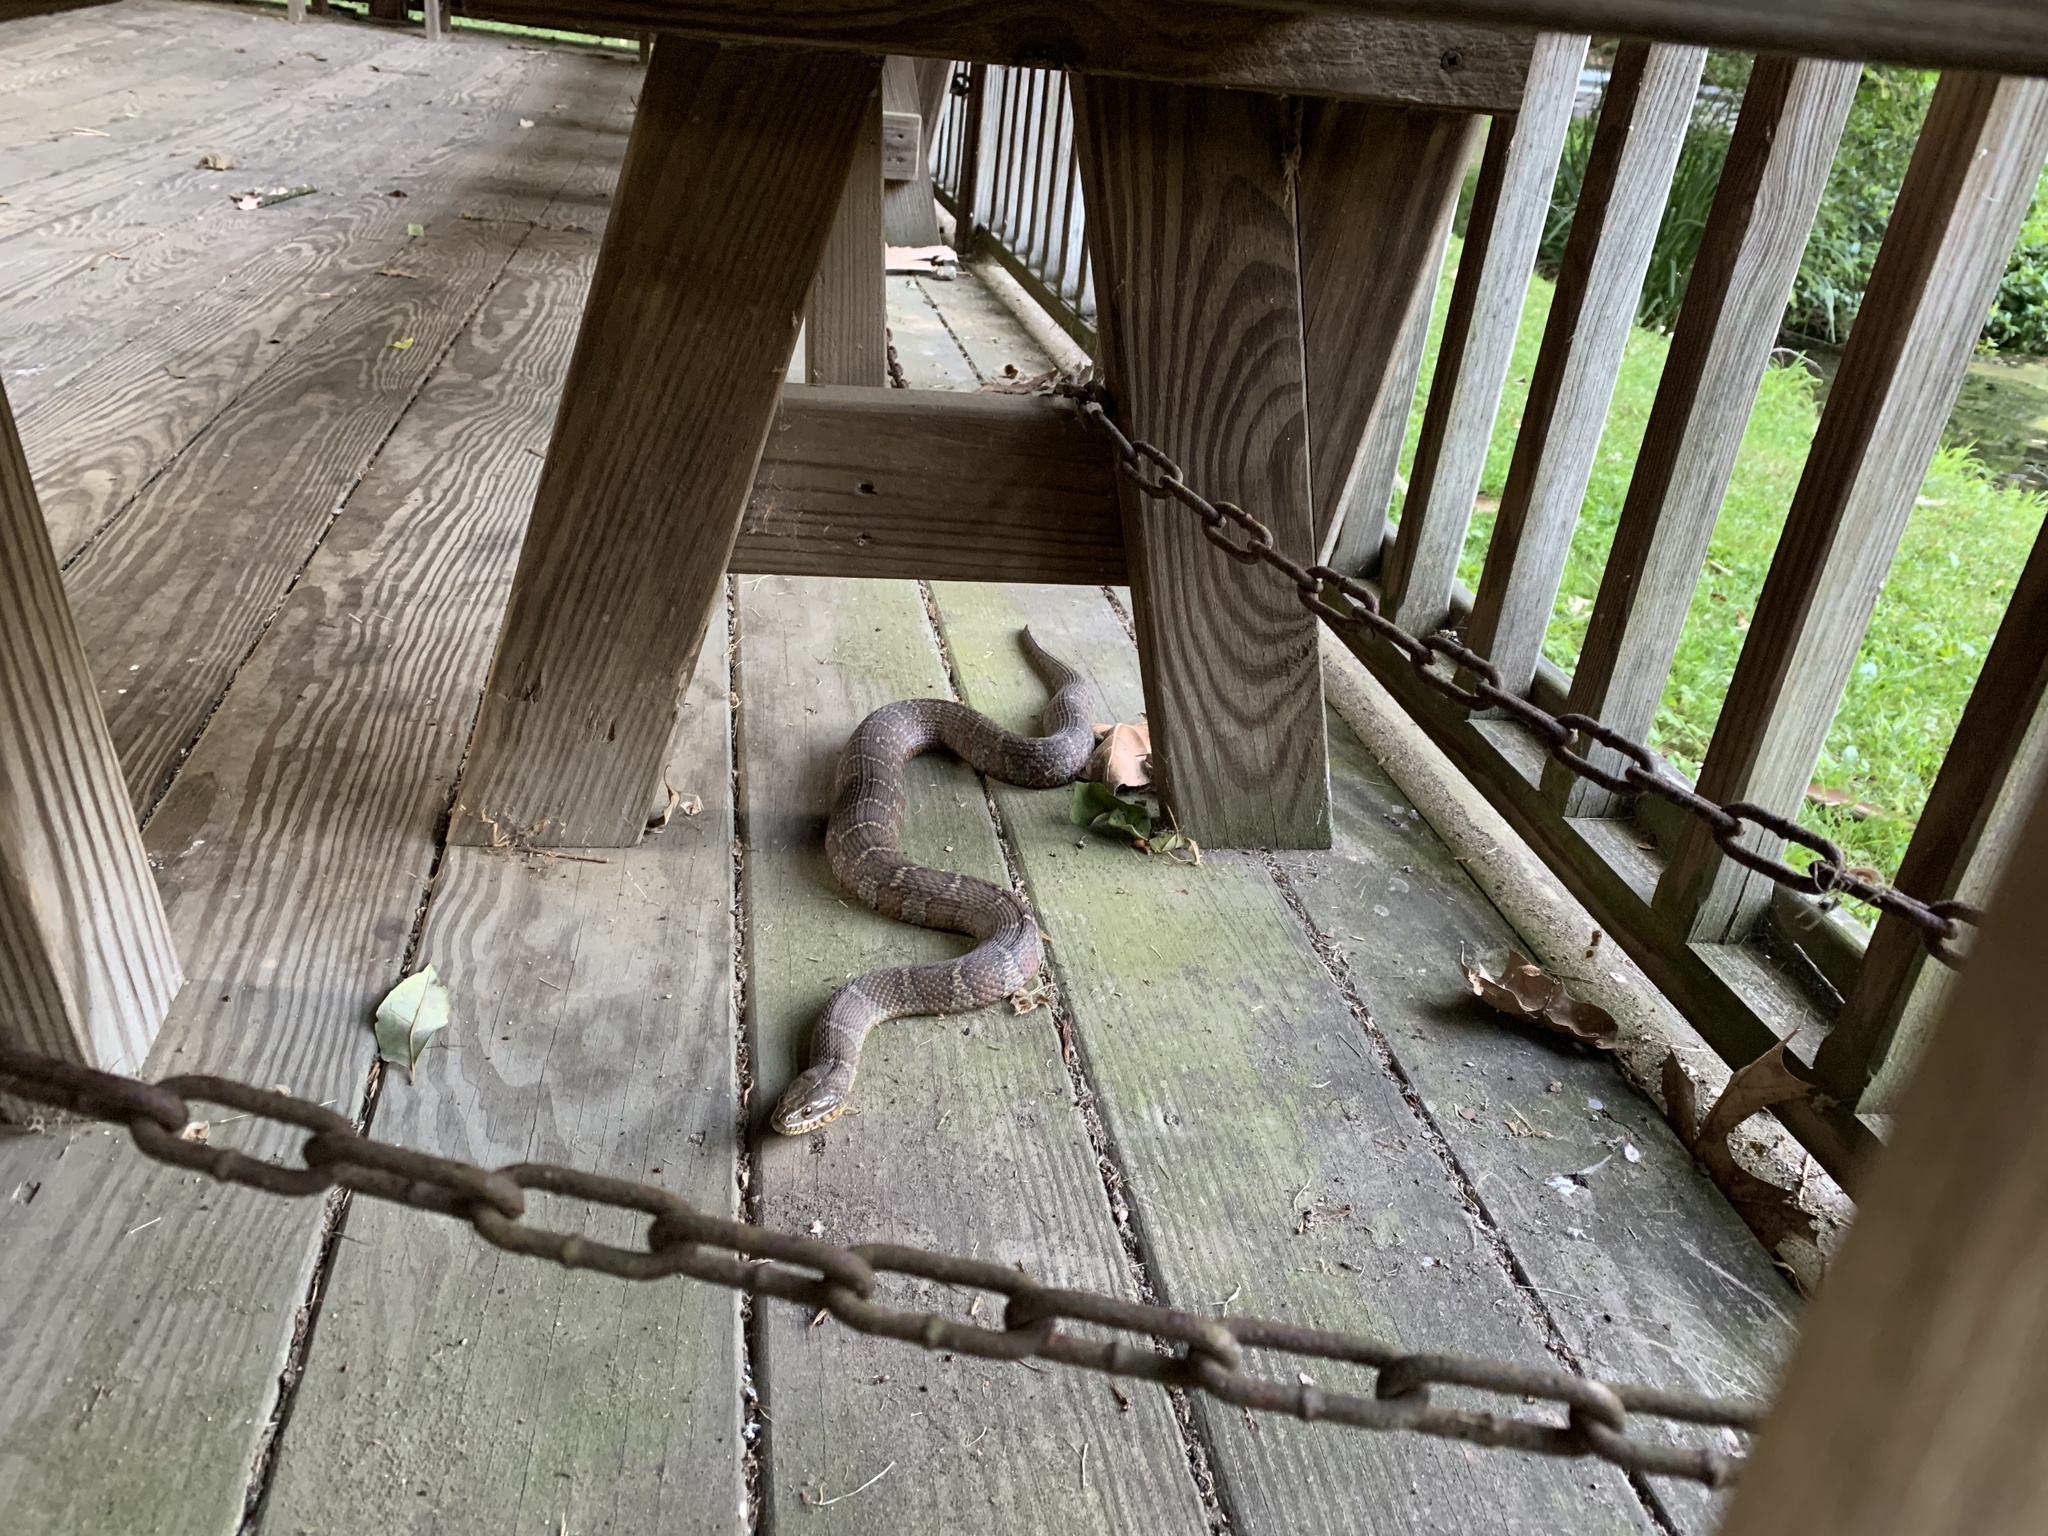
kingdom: Animalia
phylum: Chordata
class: Squamata
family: Colubridae
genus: Nerodia
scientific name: Nerodia sipedon
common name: Northern water snake
